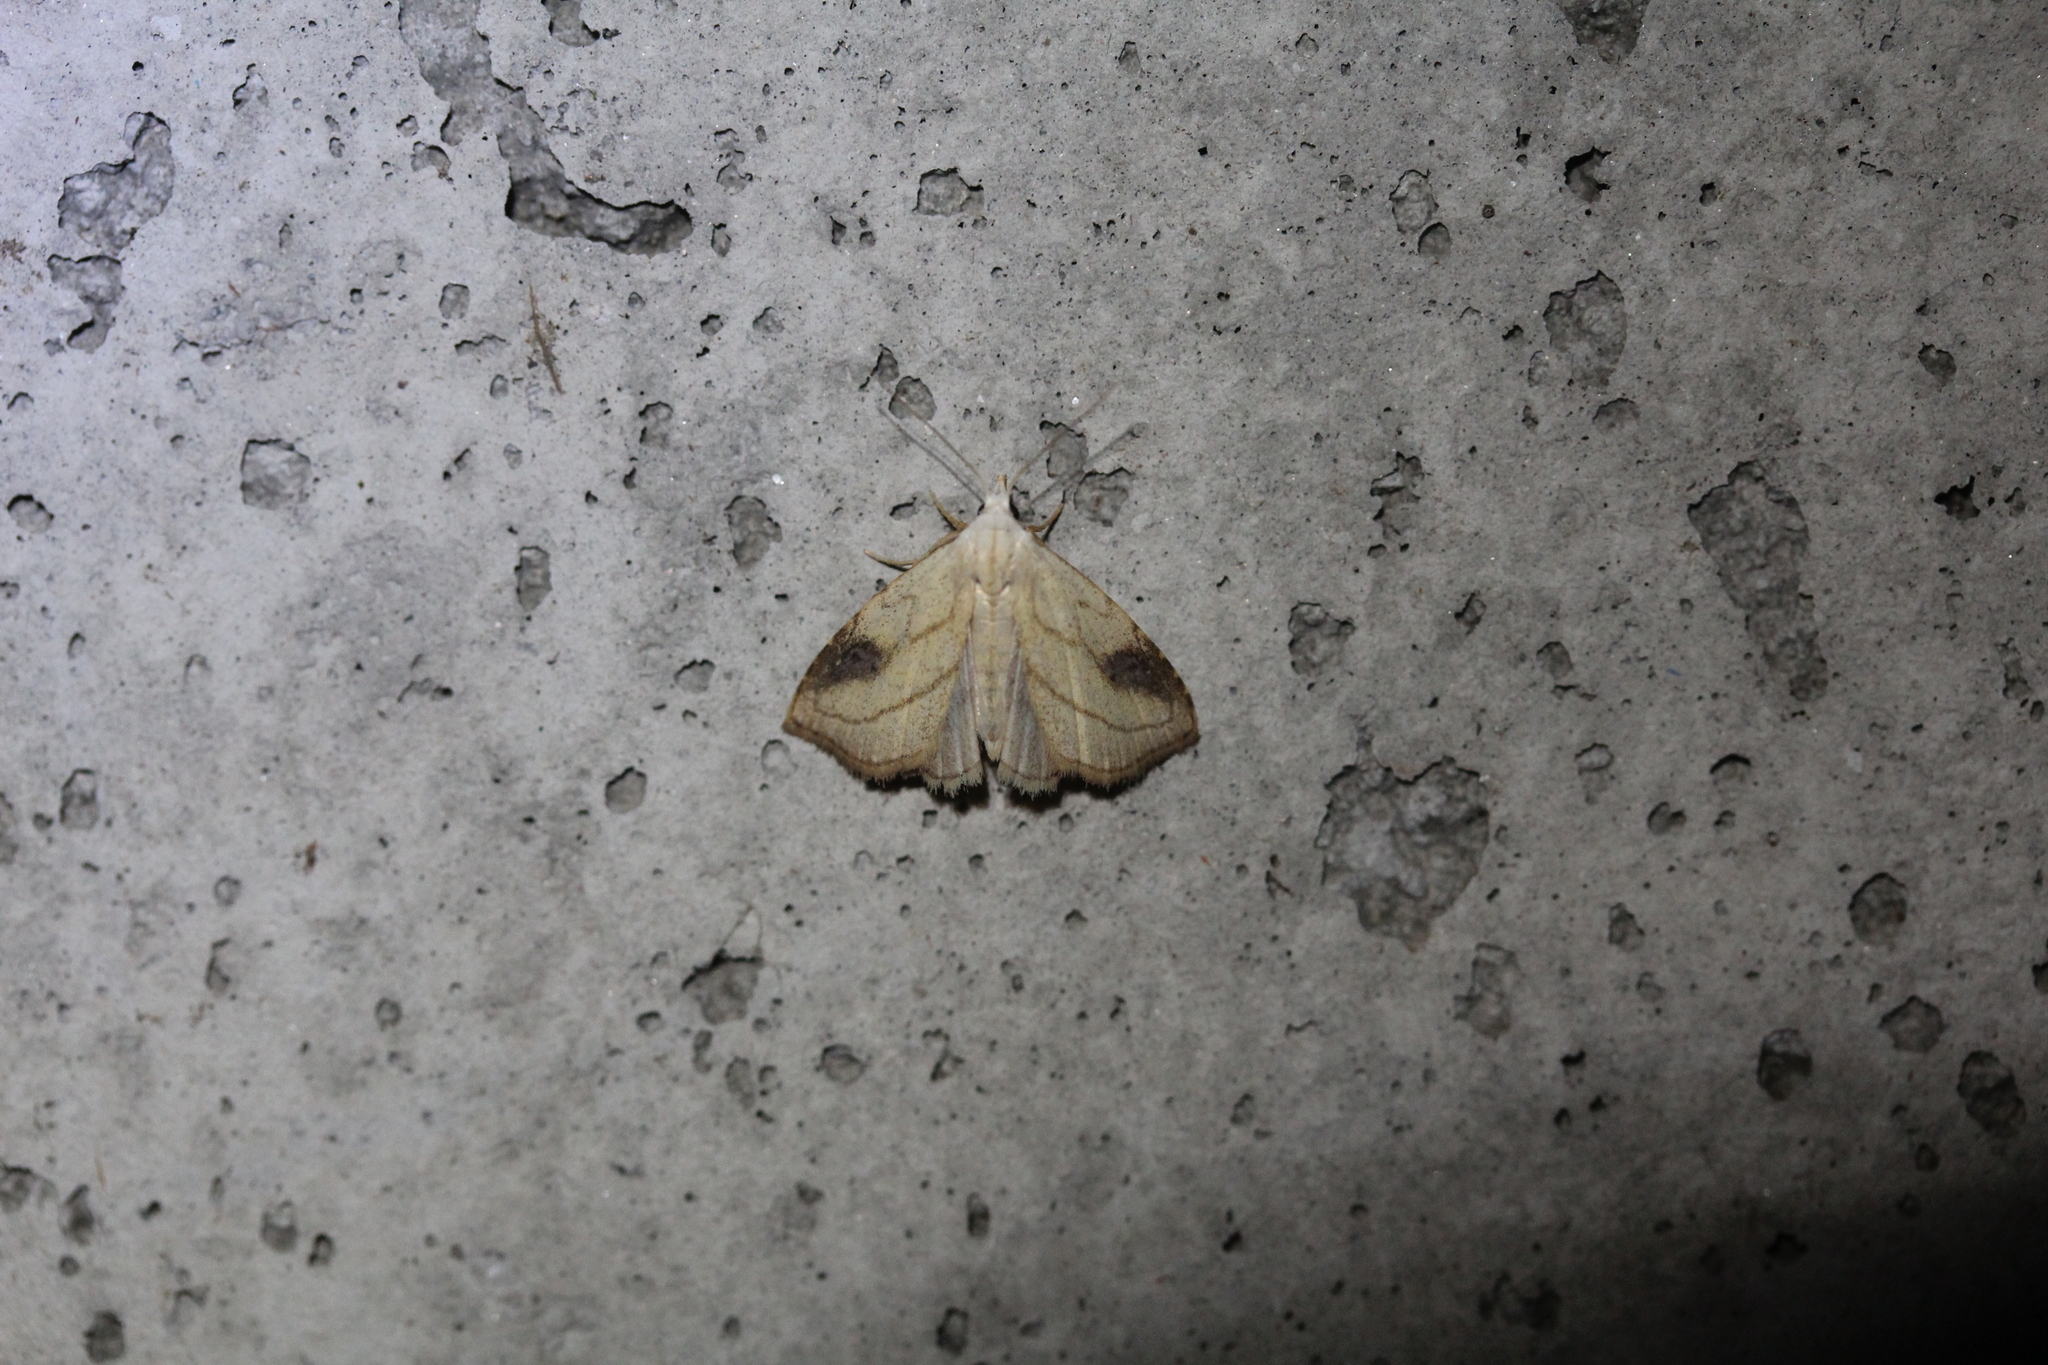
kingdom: Animalia
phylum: Arthropoda
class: Insecta
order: Lepidoptera
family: Erebidae
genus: Rivula
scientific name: Rivula propinqualis
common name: Spotted grass moth
